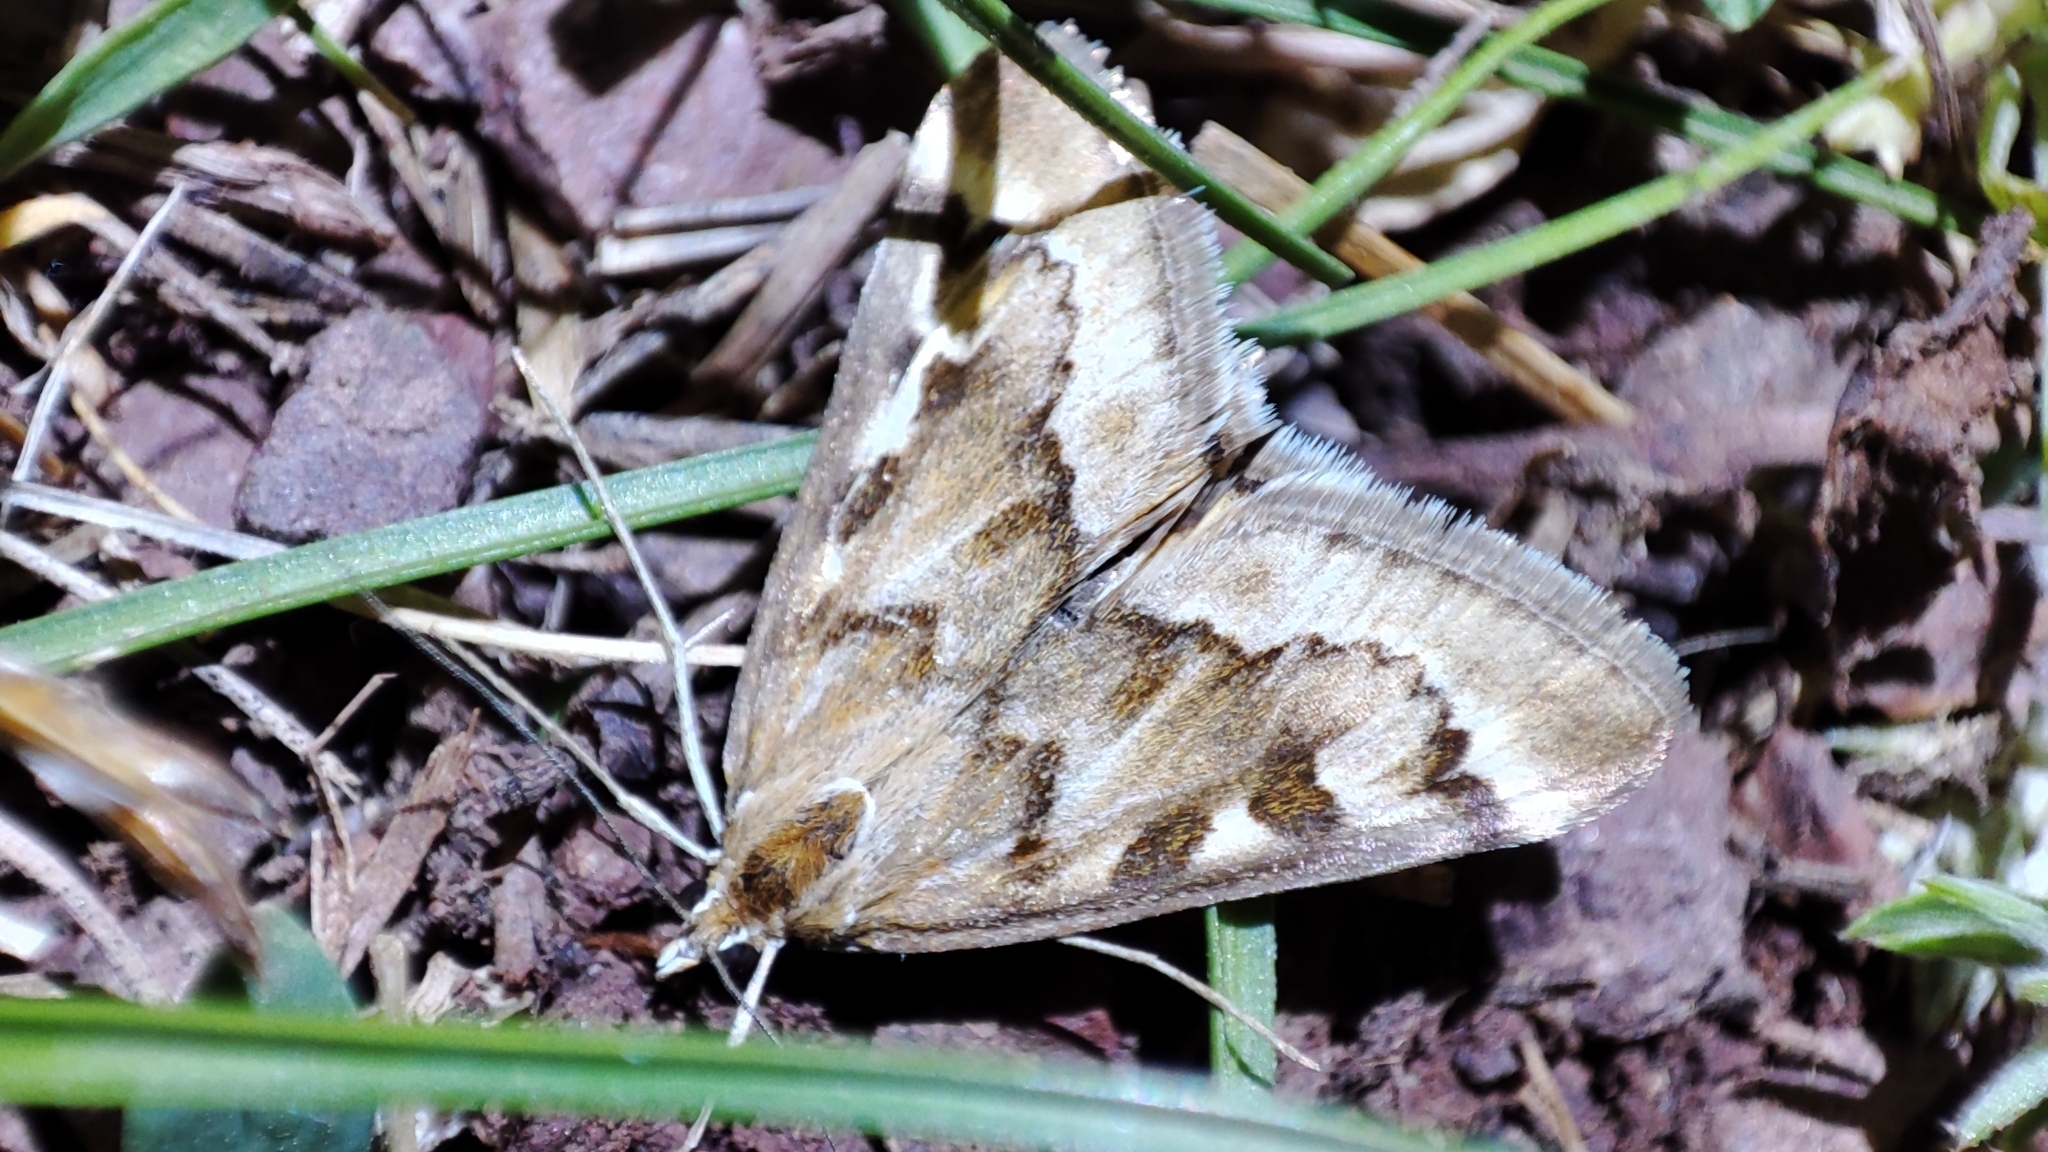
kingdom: Animalia
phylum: Arthropoda
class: Insecta
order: Lepidoptera
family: Crambidae
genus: Loxostege
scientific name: Loxostege eversmanni
